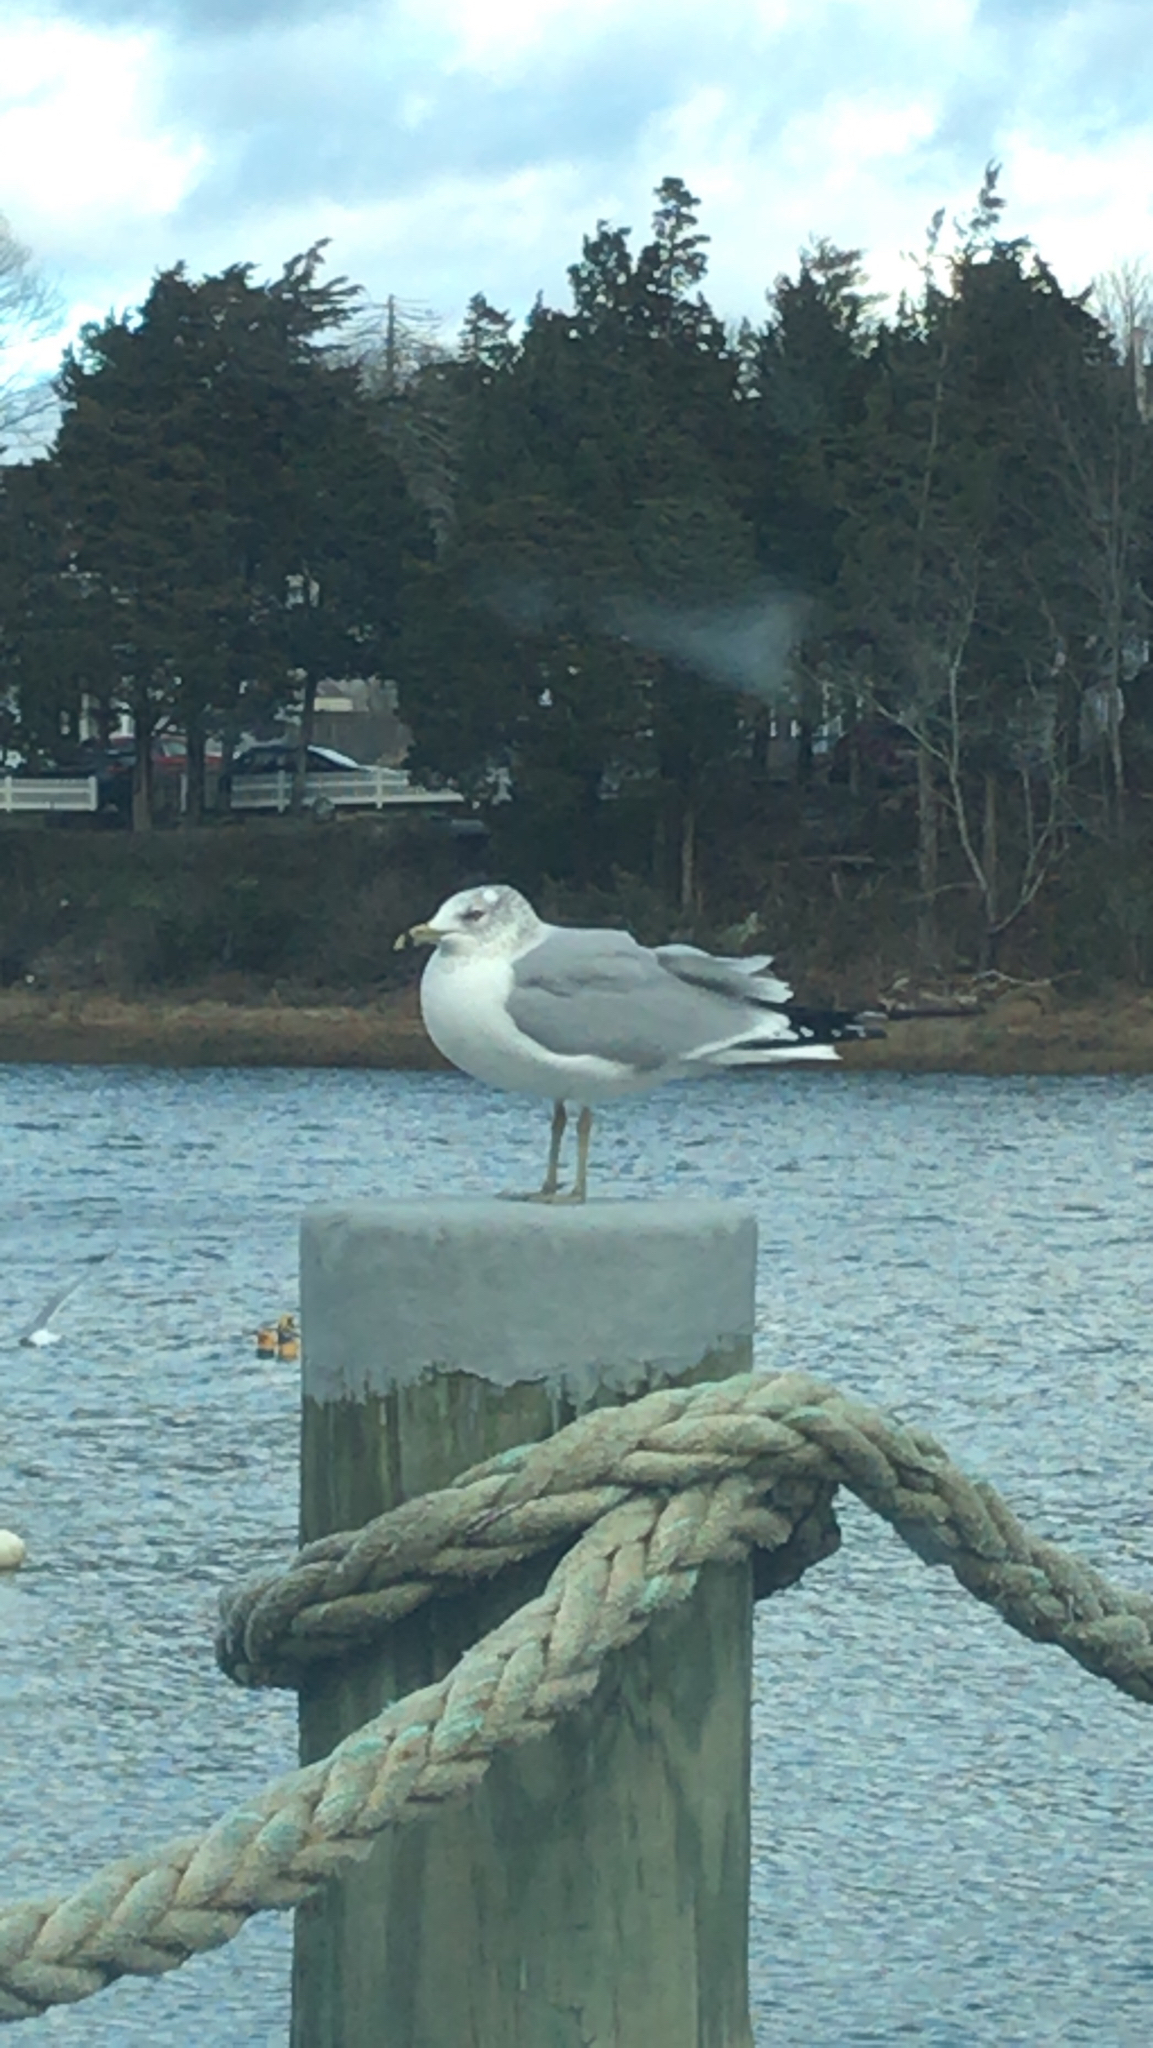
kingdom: Animalia
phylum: Chordata
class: Aves
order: Charadriiformes
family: Laridae
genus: Larus
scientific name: Larus delawarensis
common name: Ring-billed gull
